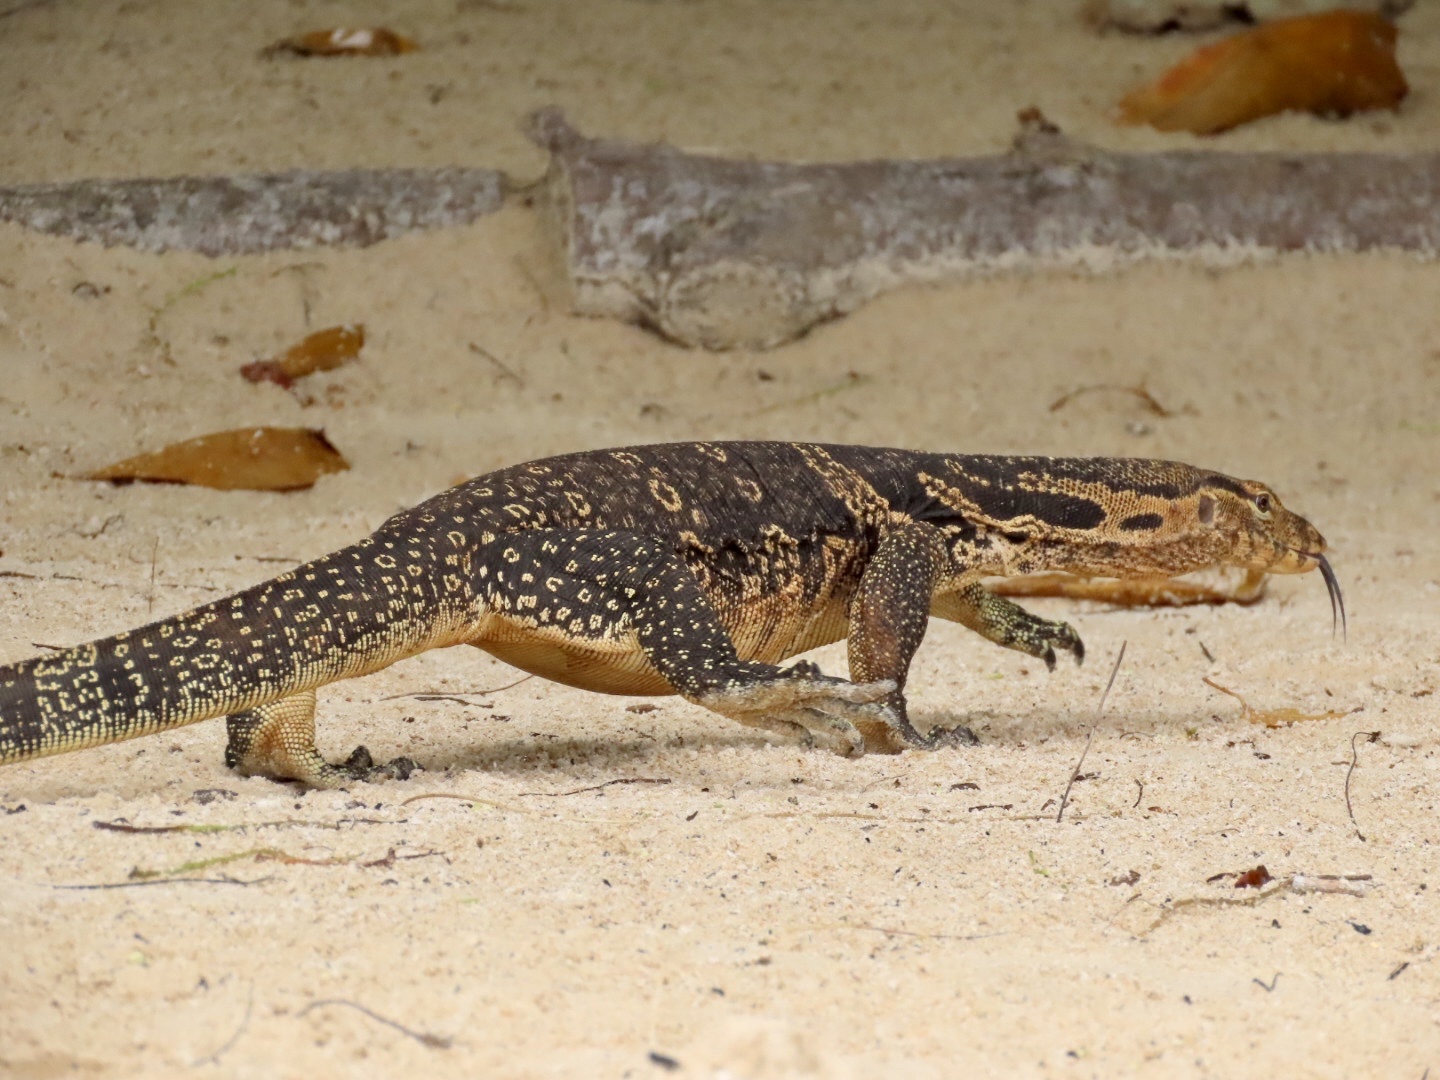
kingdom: Animalia
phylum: Chordata
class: Squamata
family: Varanidae
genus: Varanus
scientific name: Varanus salvator
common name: Common water monitor
